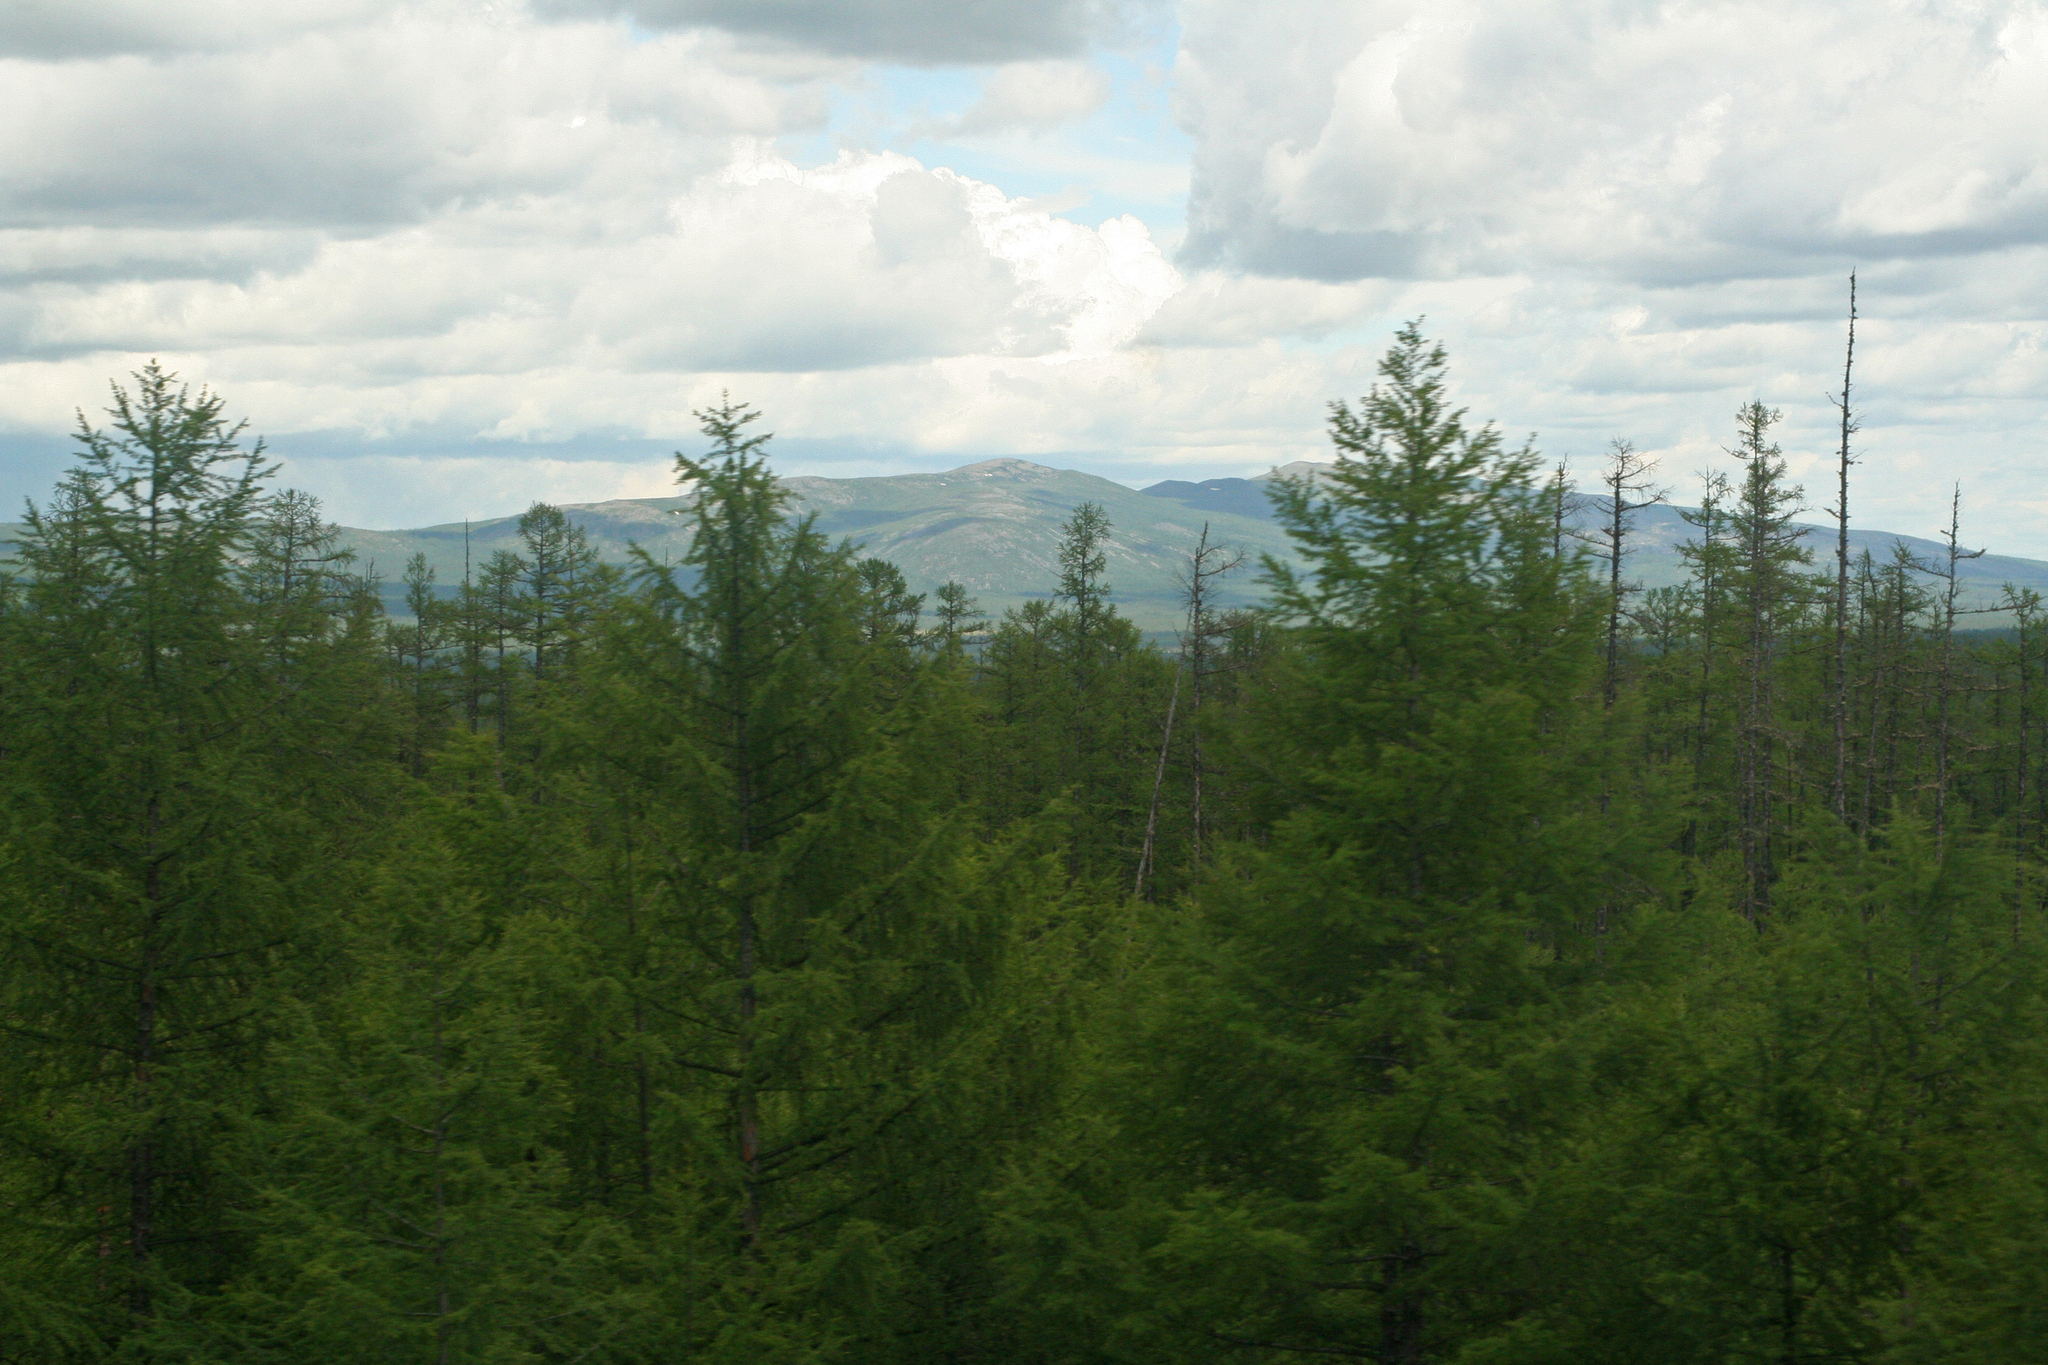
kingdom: Plantae
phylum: Tracheophyta
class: Pinopsida
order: Pinales
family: Pinaceae
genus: Larix
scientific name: Larix gmelinii
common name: Dahurian larch
